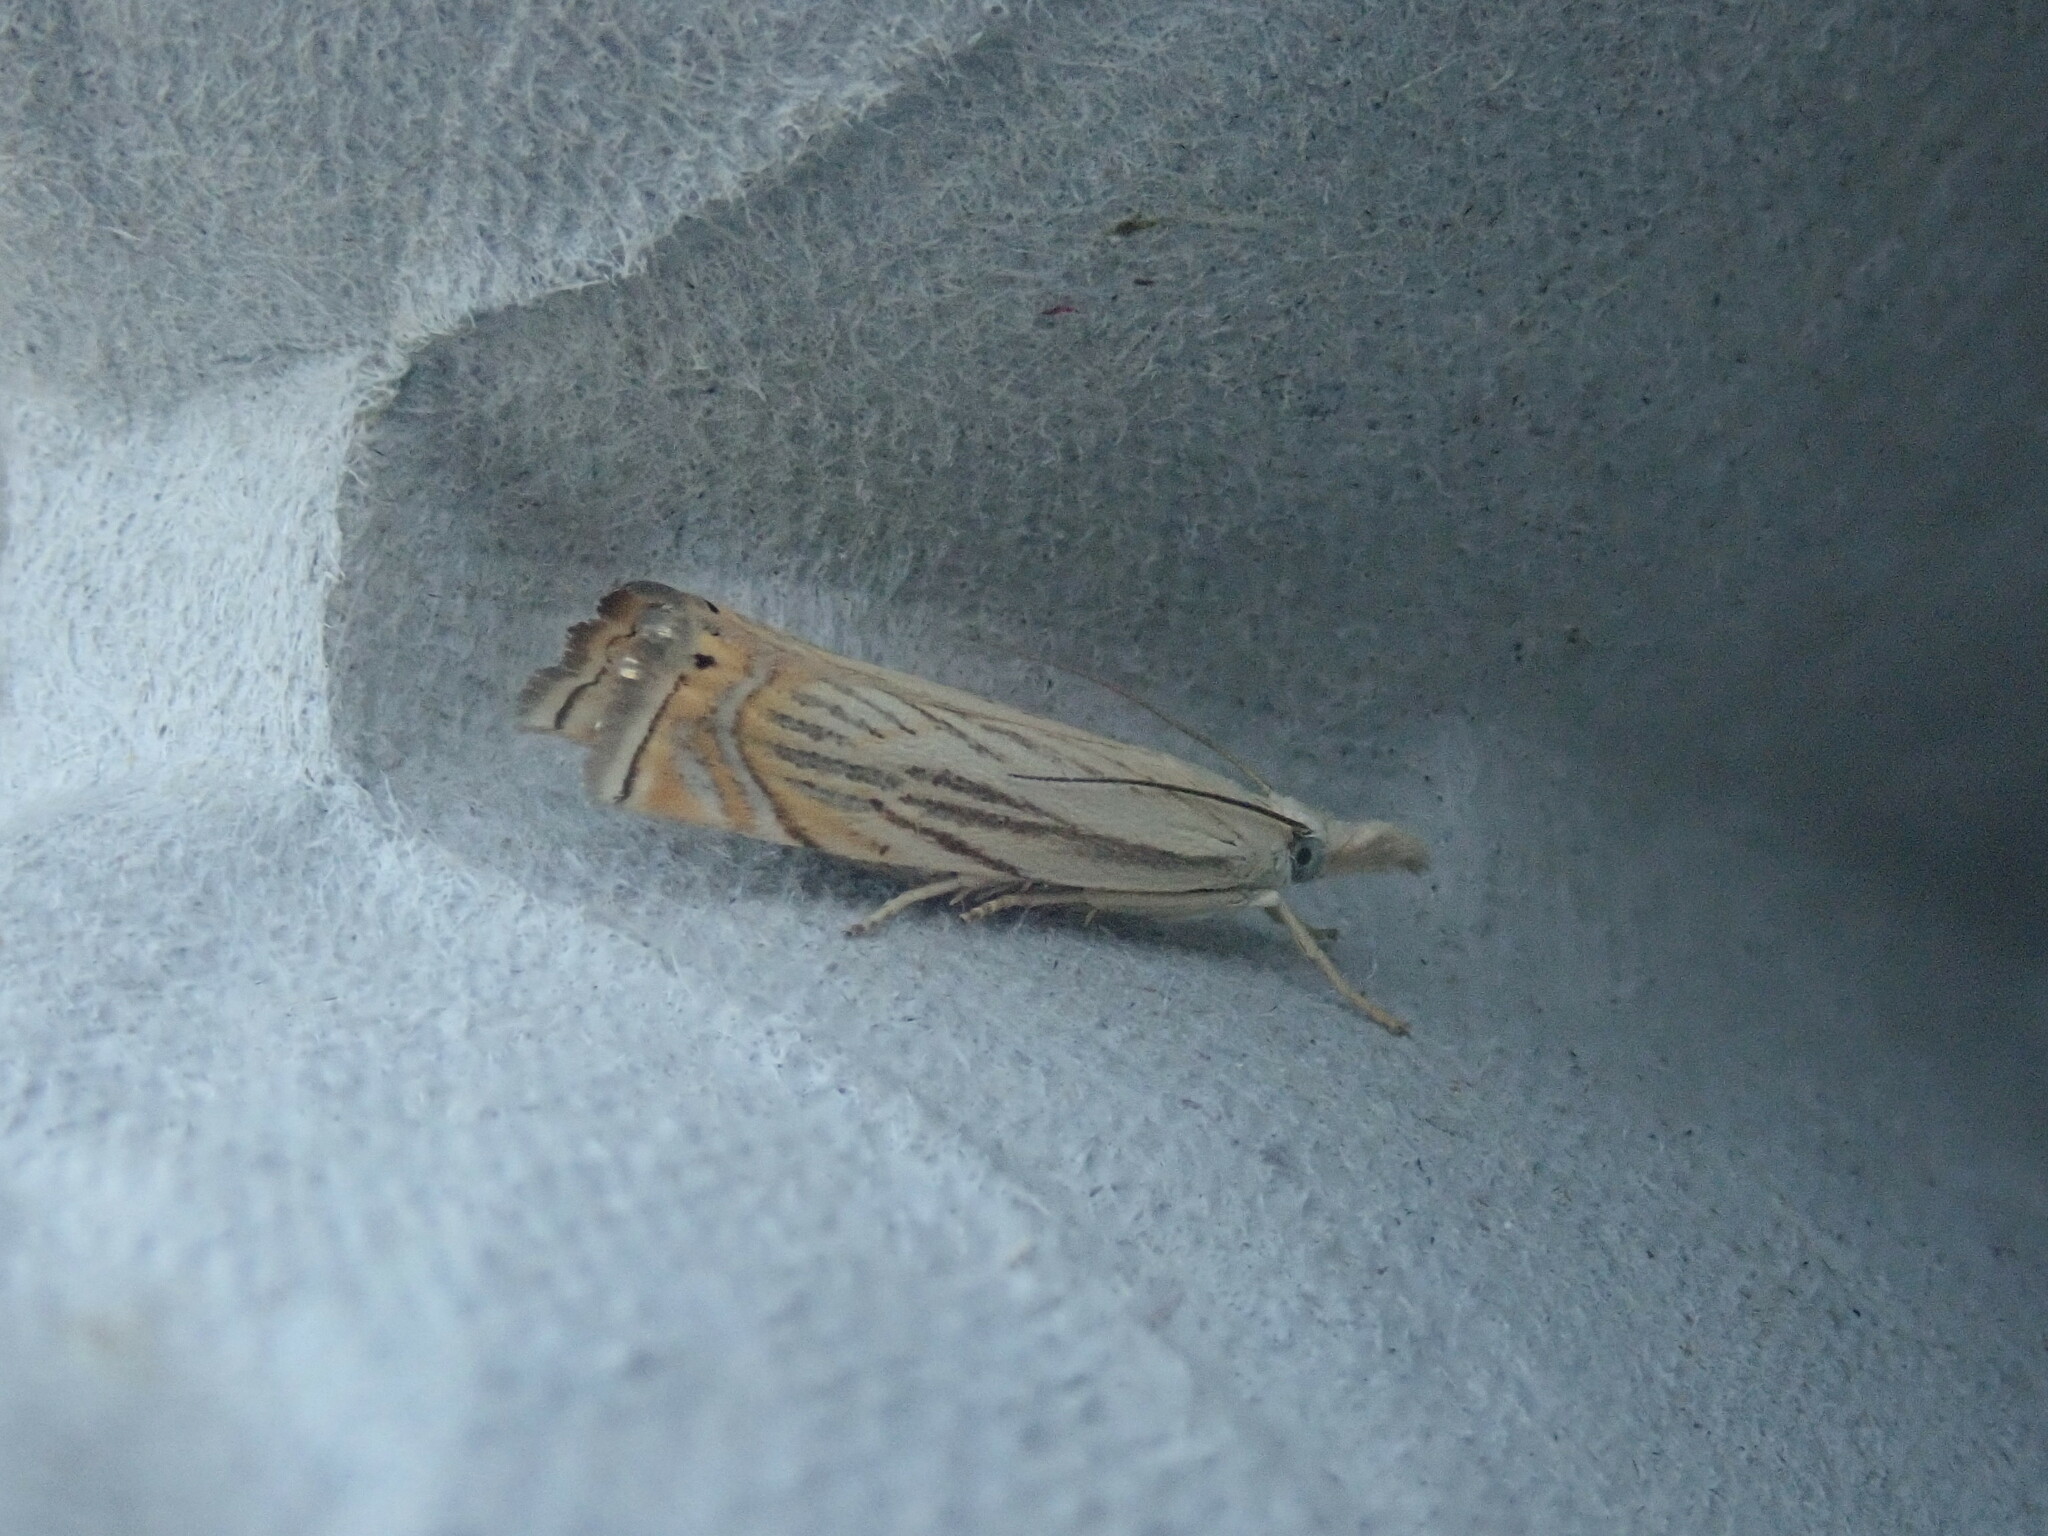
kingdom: Animalia
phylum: Arthropoda
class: Insecta
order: Lepidoptera
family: Crambidae
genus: Chrysoteuchia
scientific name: Chrysoteuchia topiarius
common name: Topiary grass-veneer
